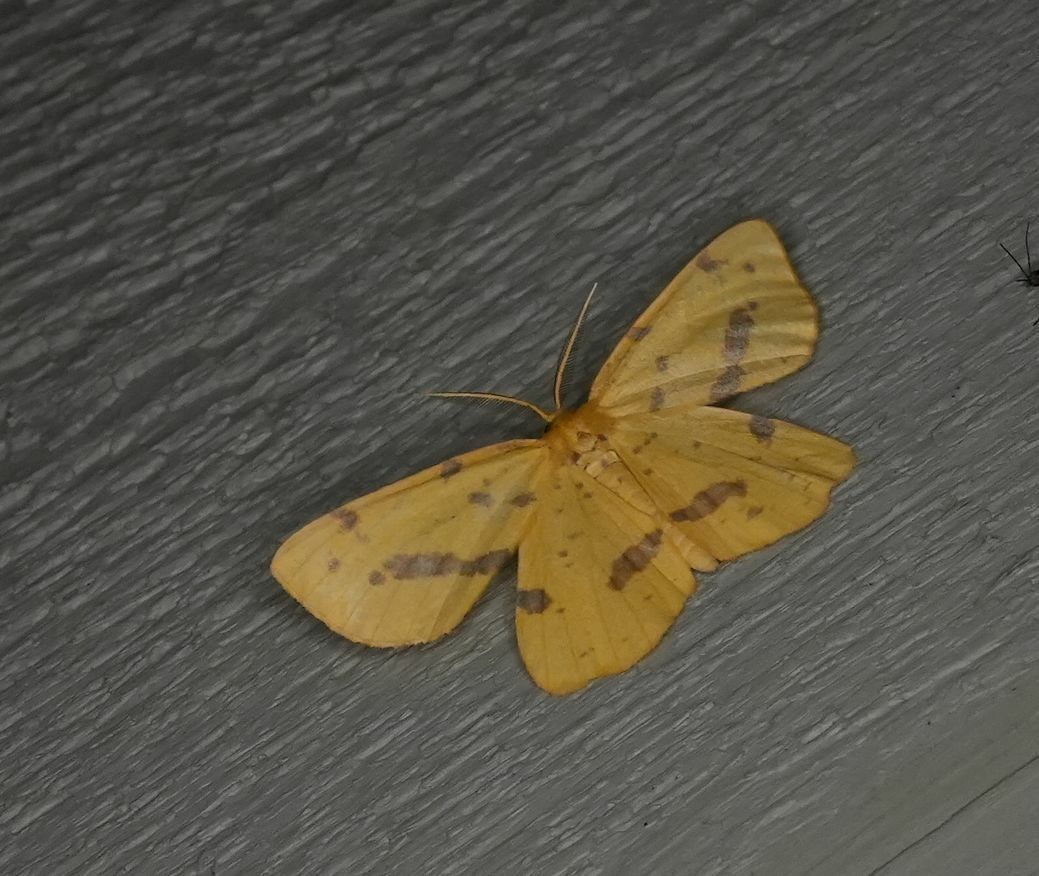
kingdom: Animalia
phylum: Arthropoda
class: Insecta
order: Lepidoptera
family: Geometridae
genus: Xanthotype
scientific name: Xanthotype
